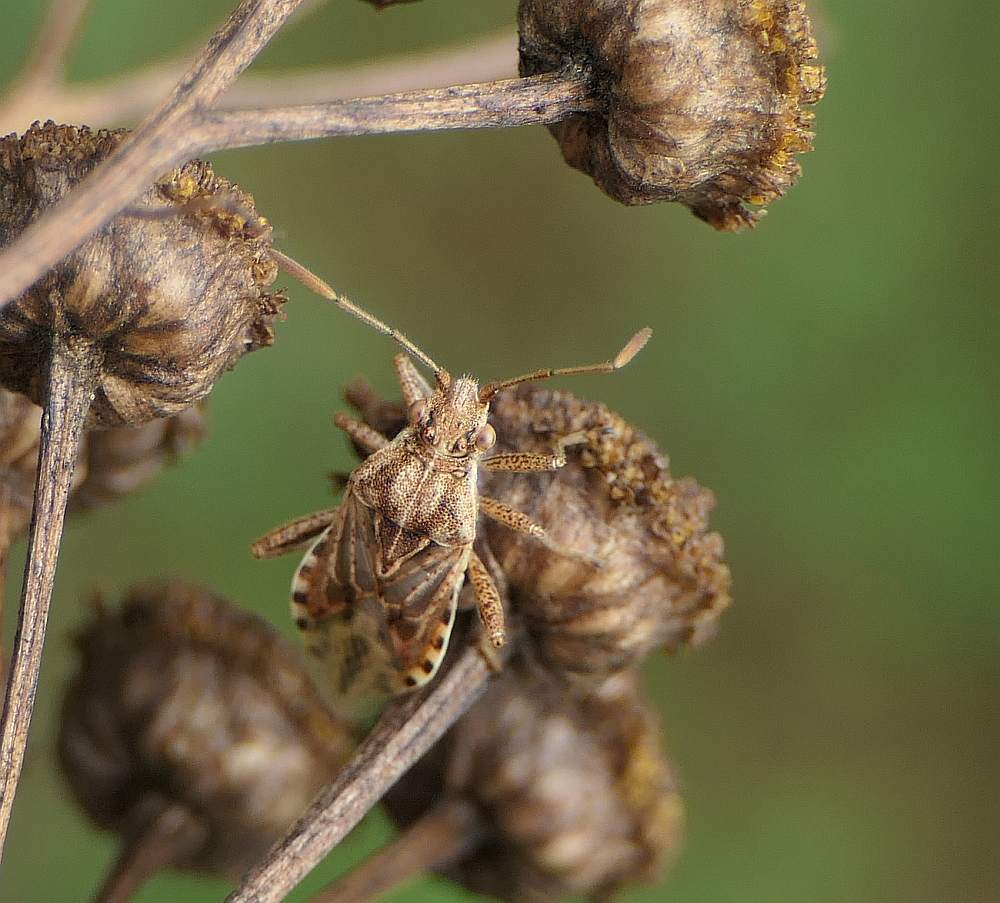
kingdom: Animalia
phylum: Arthropoda
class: Insecta
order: Hemiptera
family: Rhopalidae
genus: Stictopleurus
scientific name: Stictopleurus punctiventris
